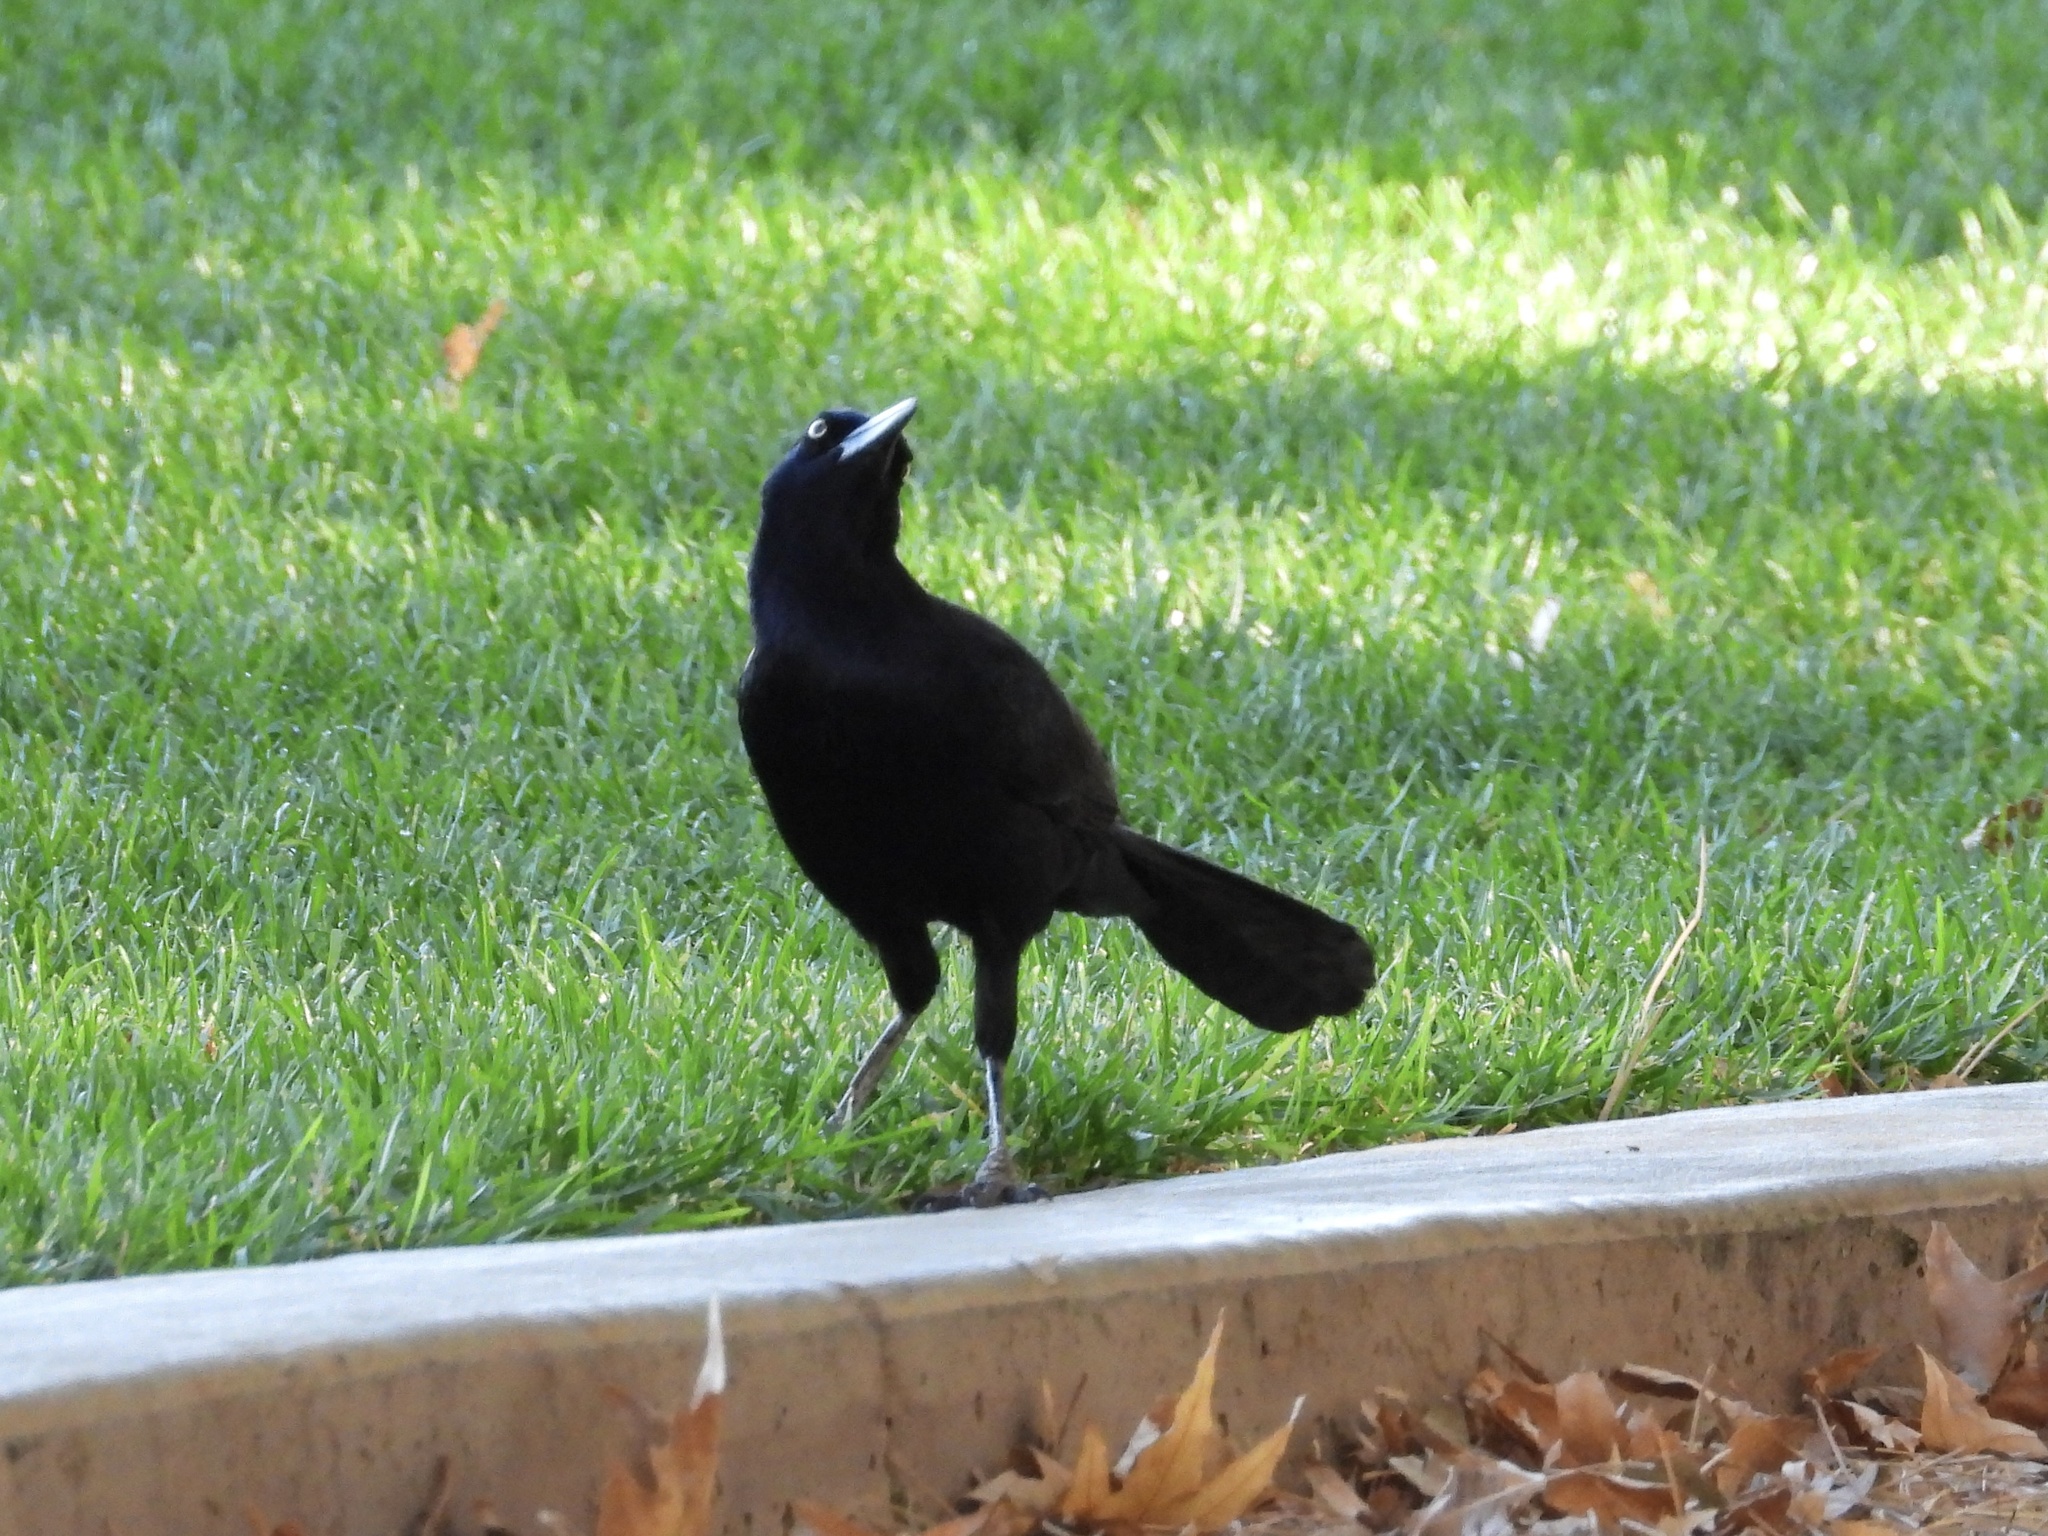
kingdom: Animalia
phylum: Chordata
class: Aves
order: Passeriformes
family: Icteridae
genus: Quiscalus
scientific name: Quiscalus mexicanus
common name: Great-tailed grackle
